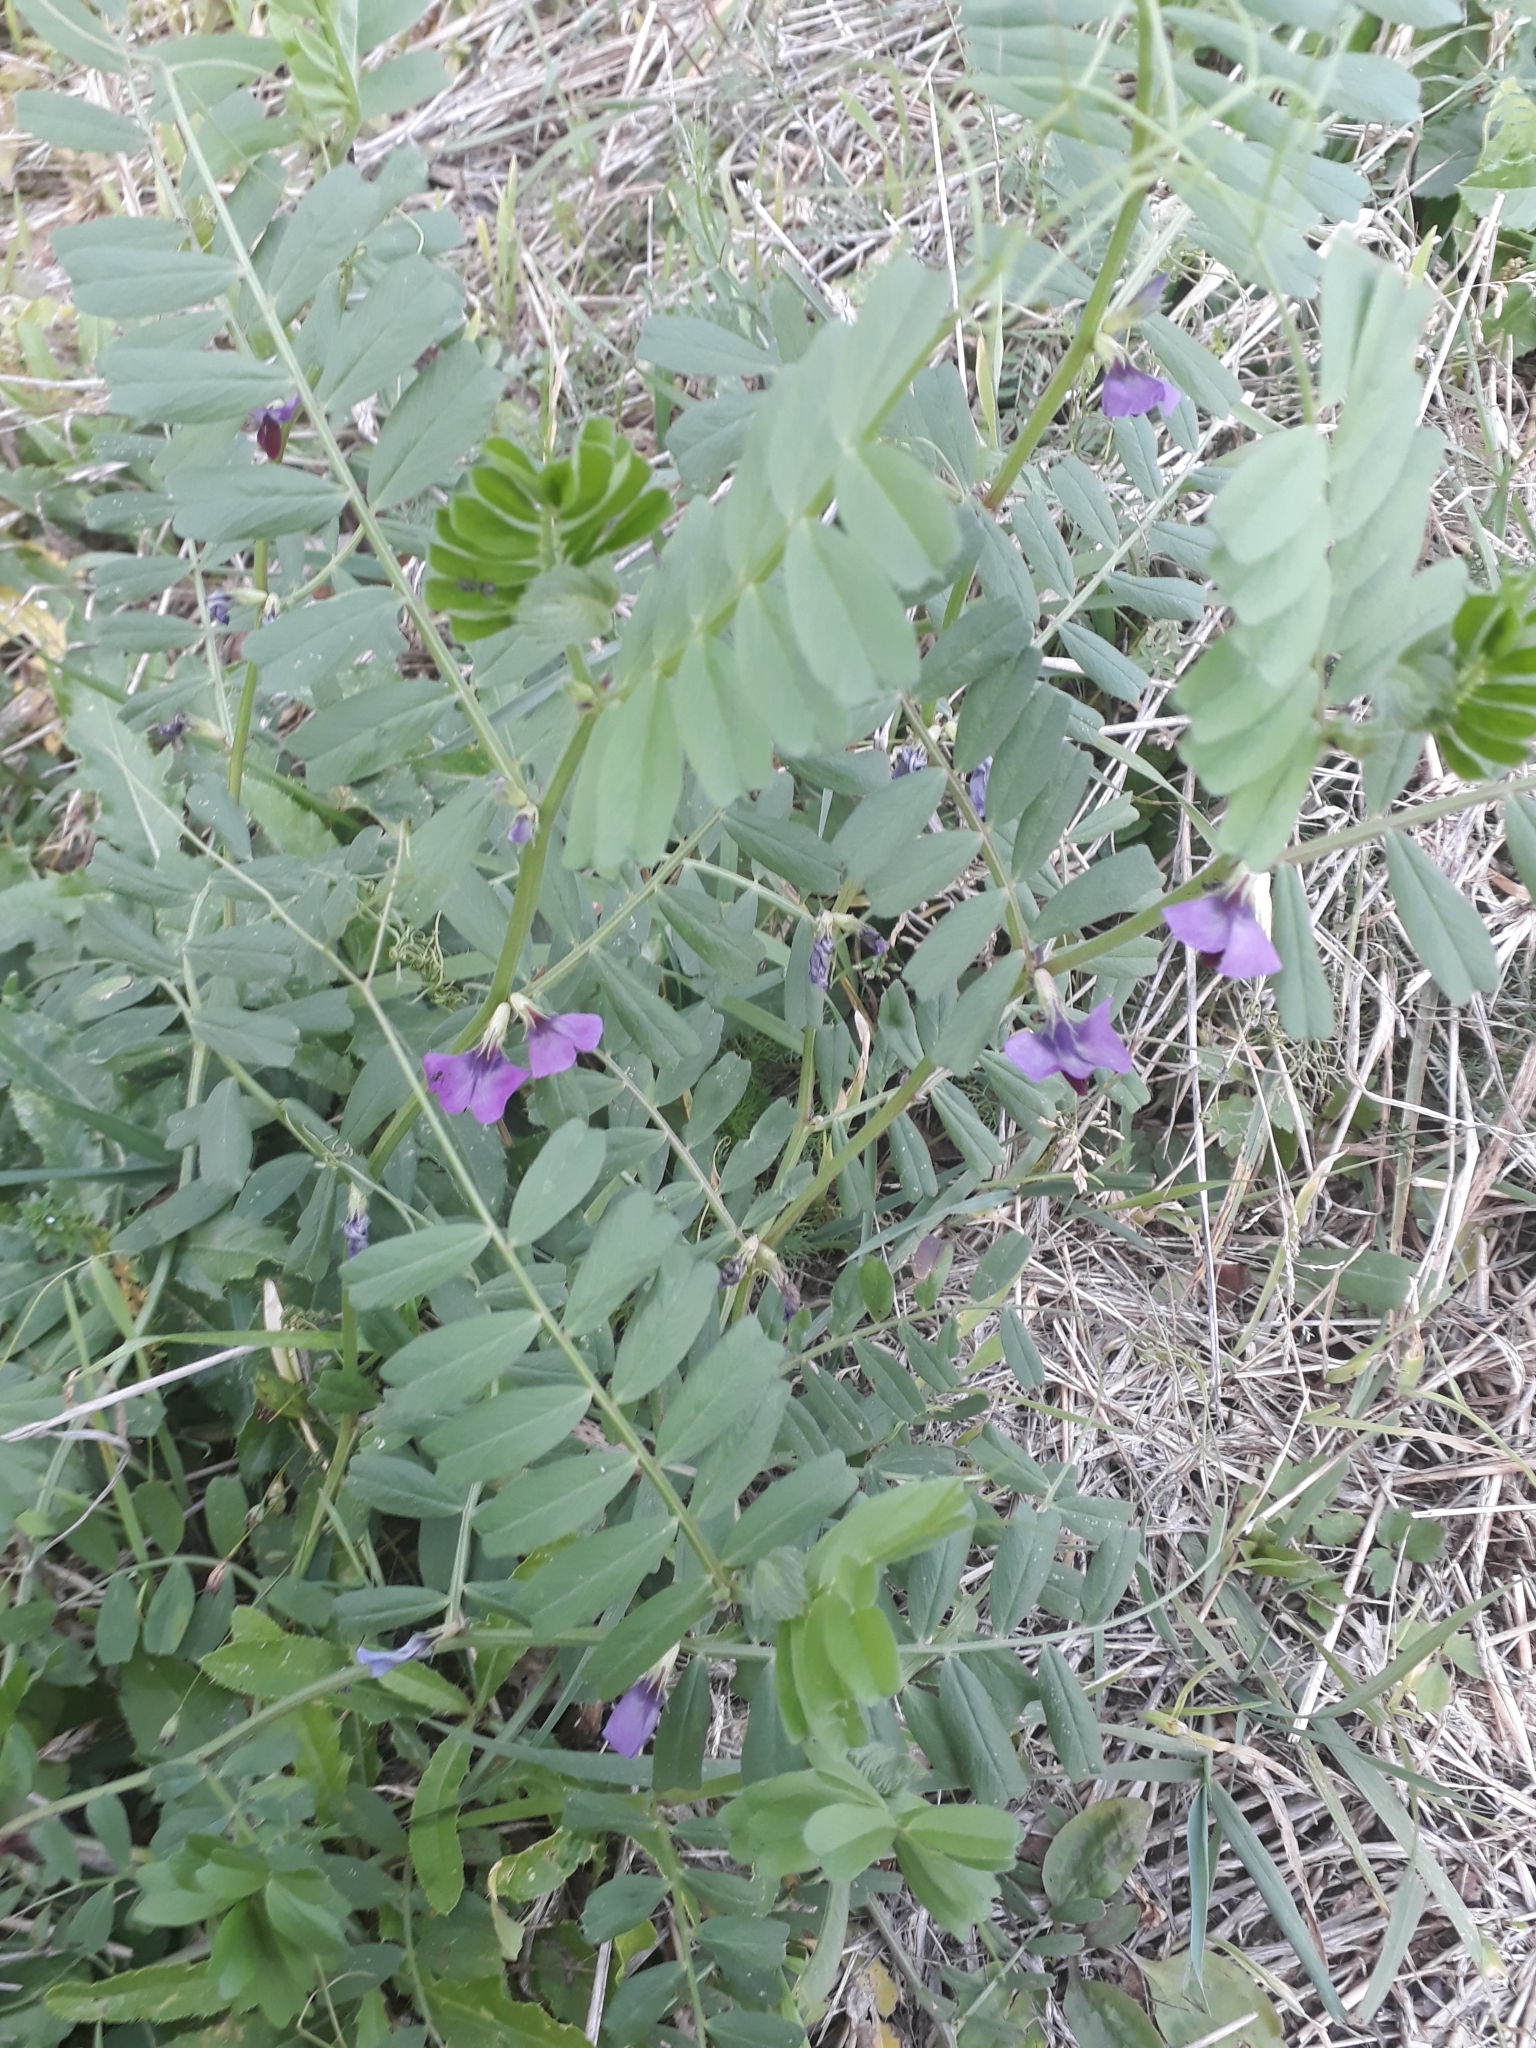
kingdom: Plantae
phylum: Tracheophyta
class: Magnoliopsida
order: Fabales
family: Fabaceae
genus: Vicia
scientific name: Vicia sativa
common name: Garden vetch
